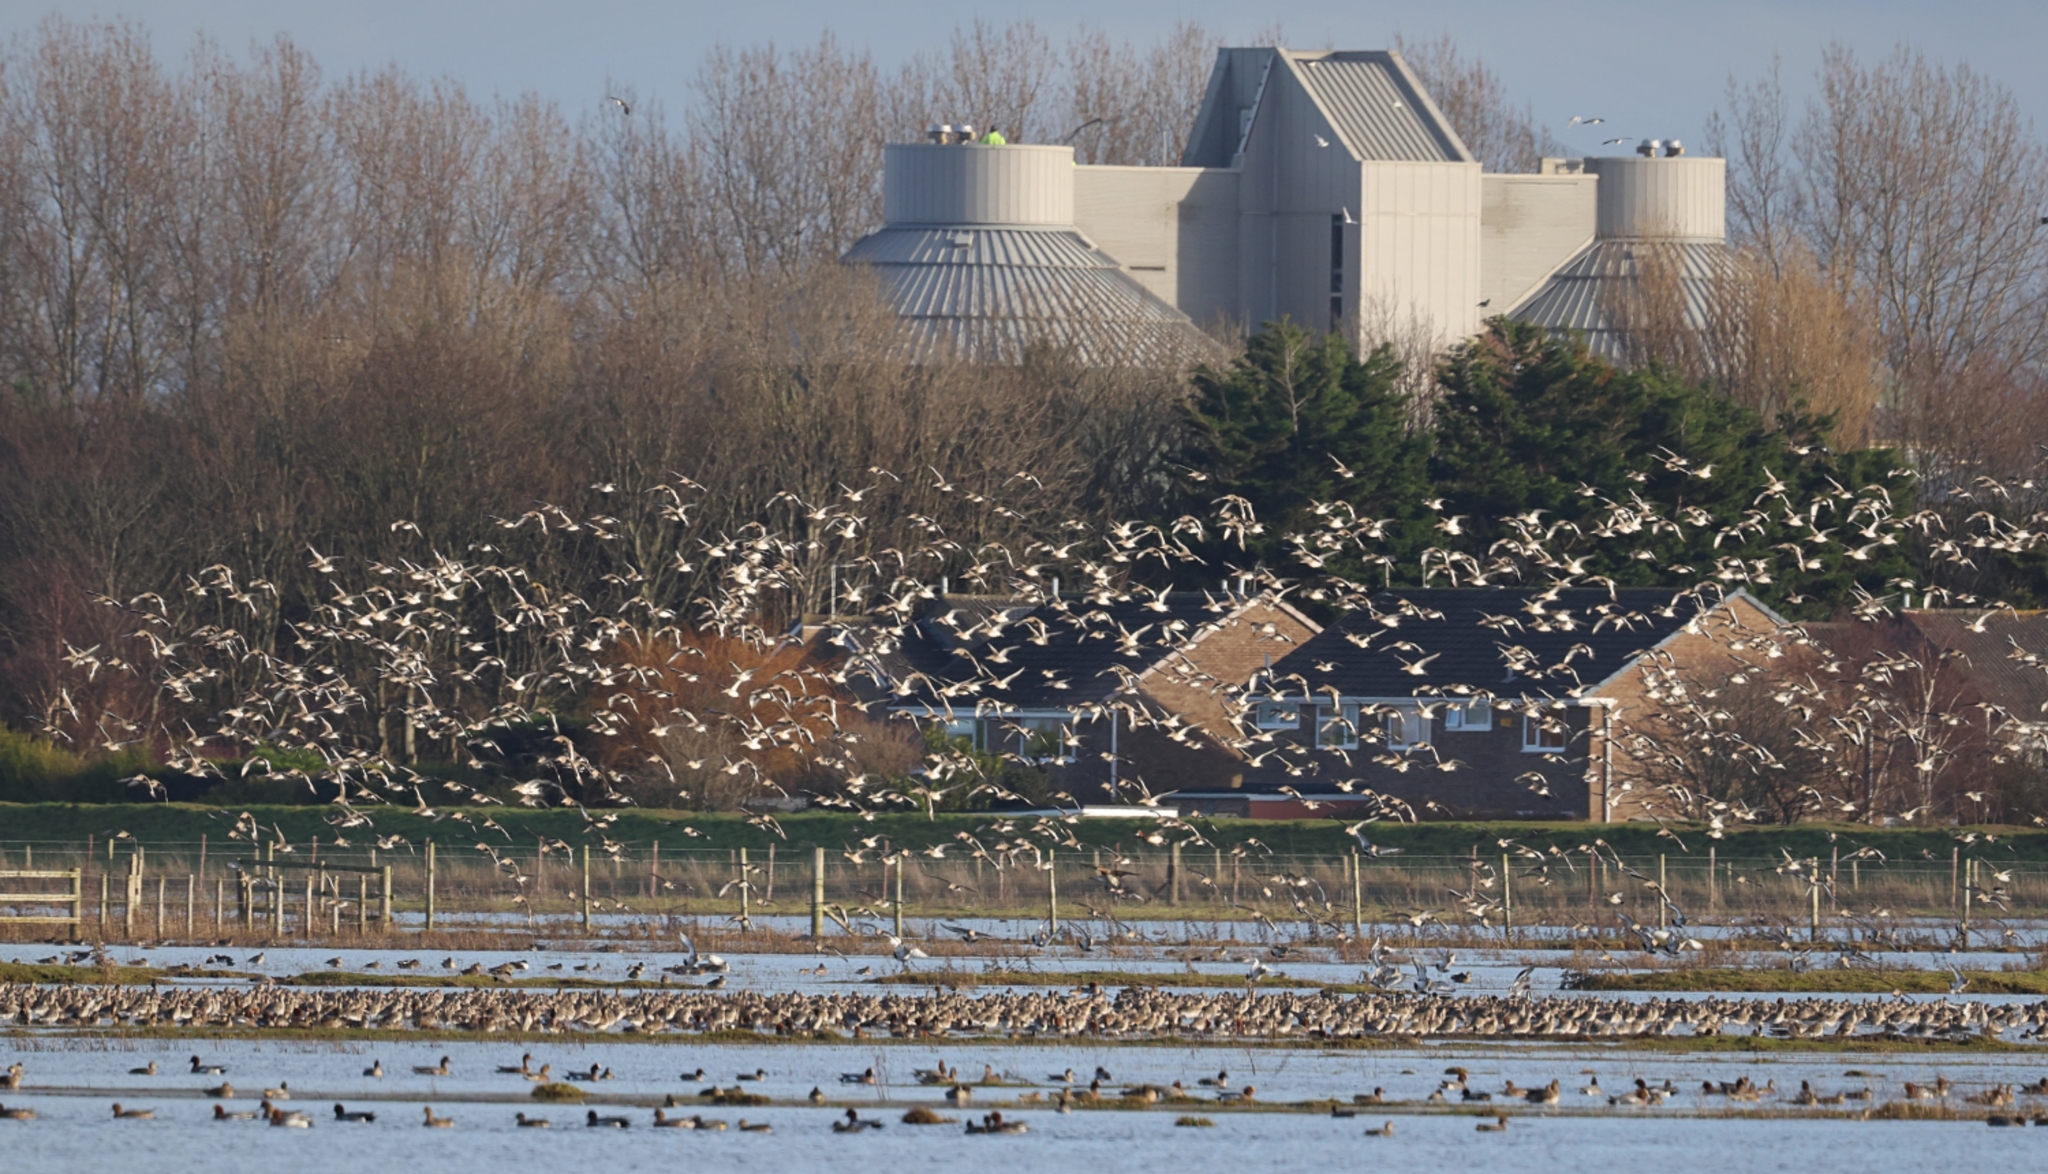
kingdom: Animalia
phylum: Chordata
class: Aves
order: Charadriiformes
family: Scolopacidae
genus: Limosa
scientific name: Limosa limosa
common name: Black-tailed godwit
